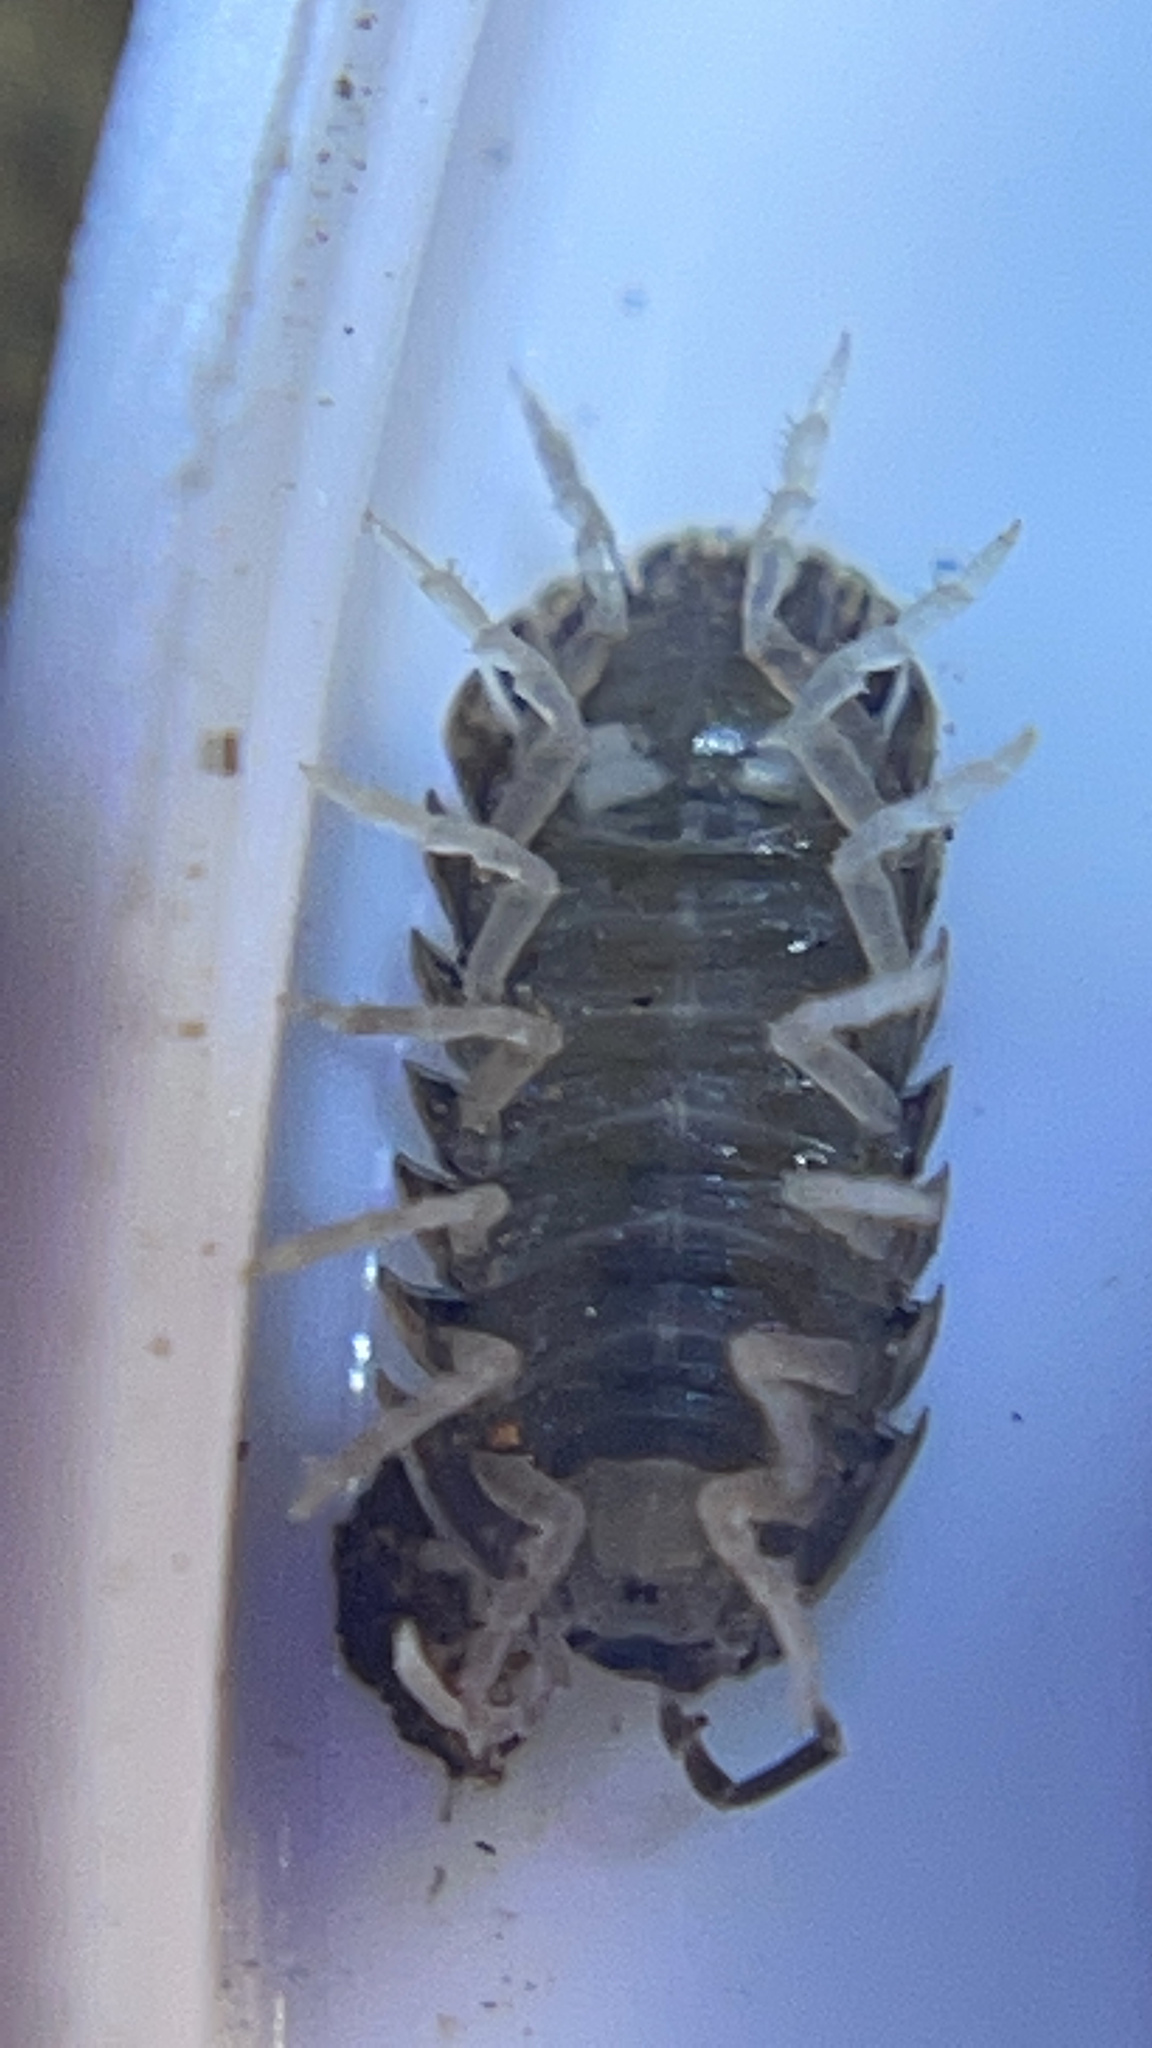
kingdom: Animalia
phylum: Arthropoda
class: Malacostraca
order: Isopoda
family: Armadillidiidae
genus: Armadillidium
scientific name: Armadillidium vulgare
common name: Common pill woodlouse
